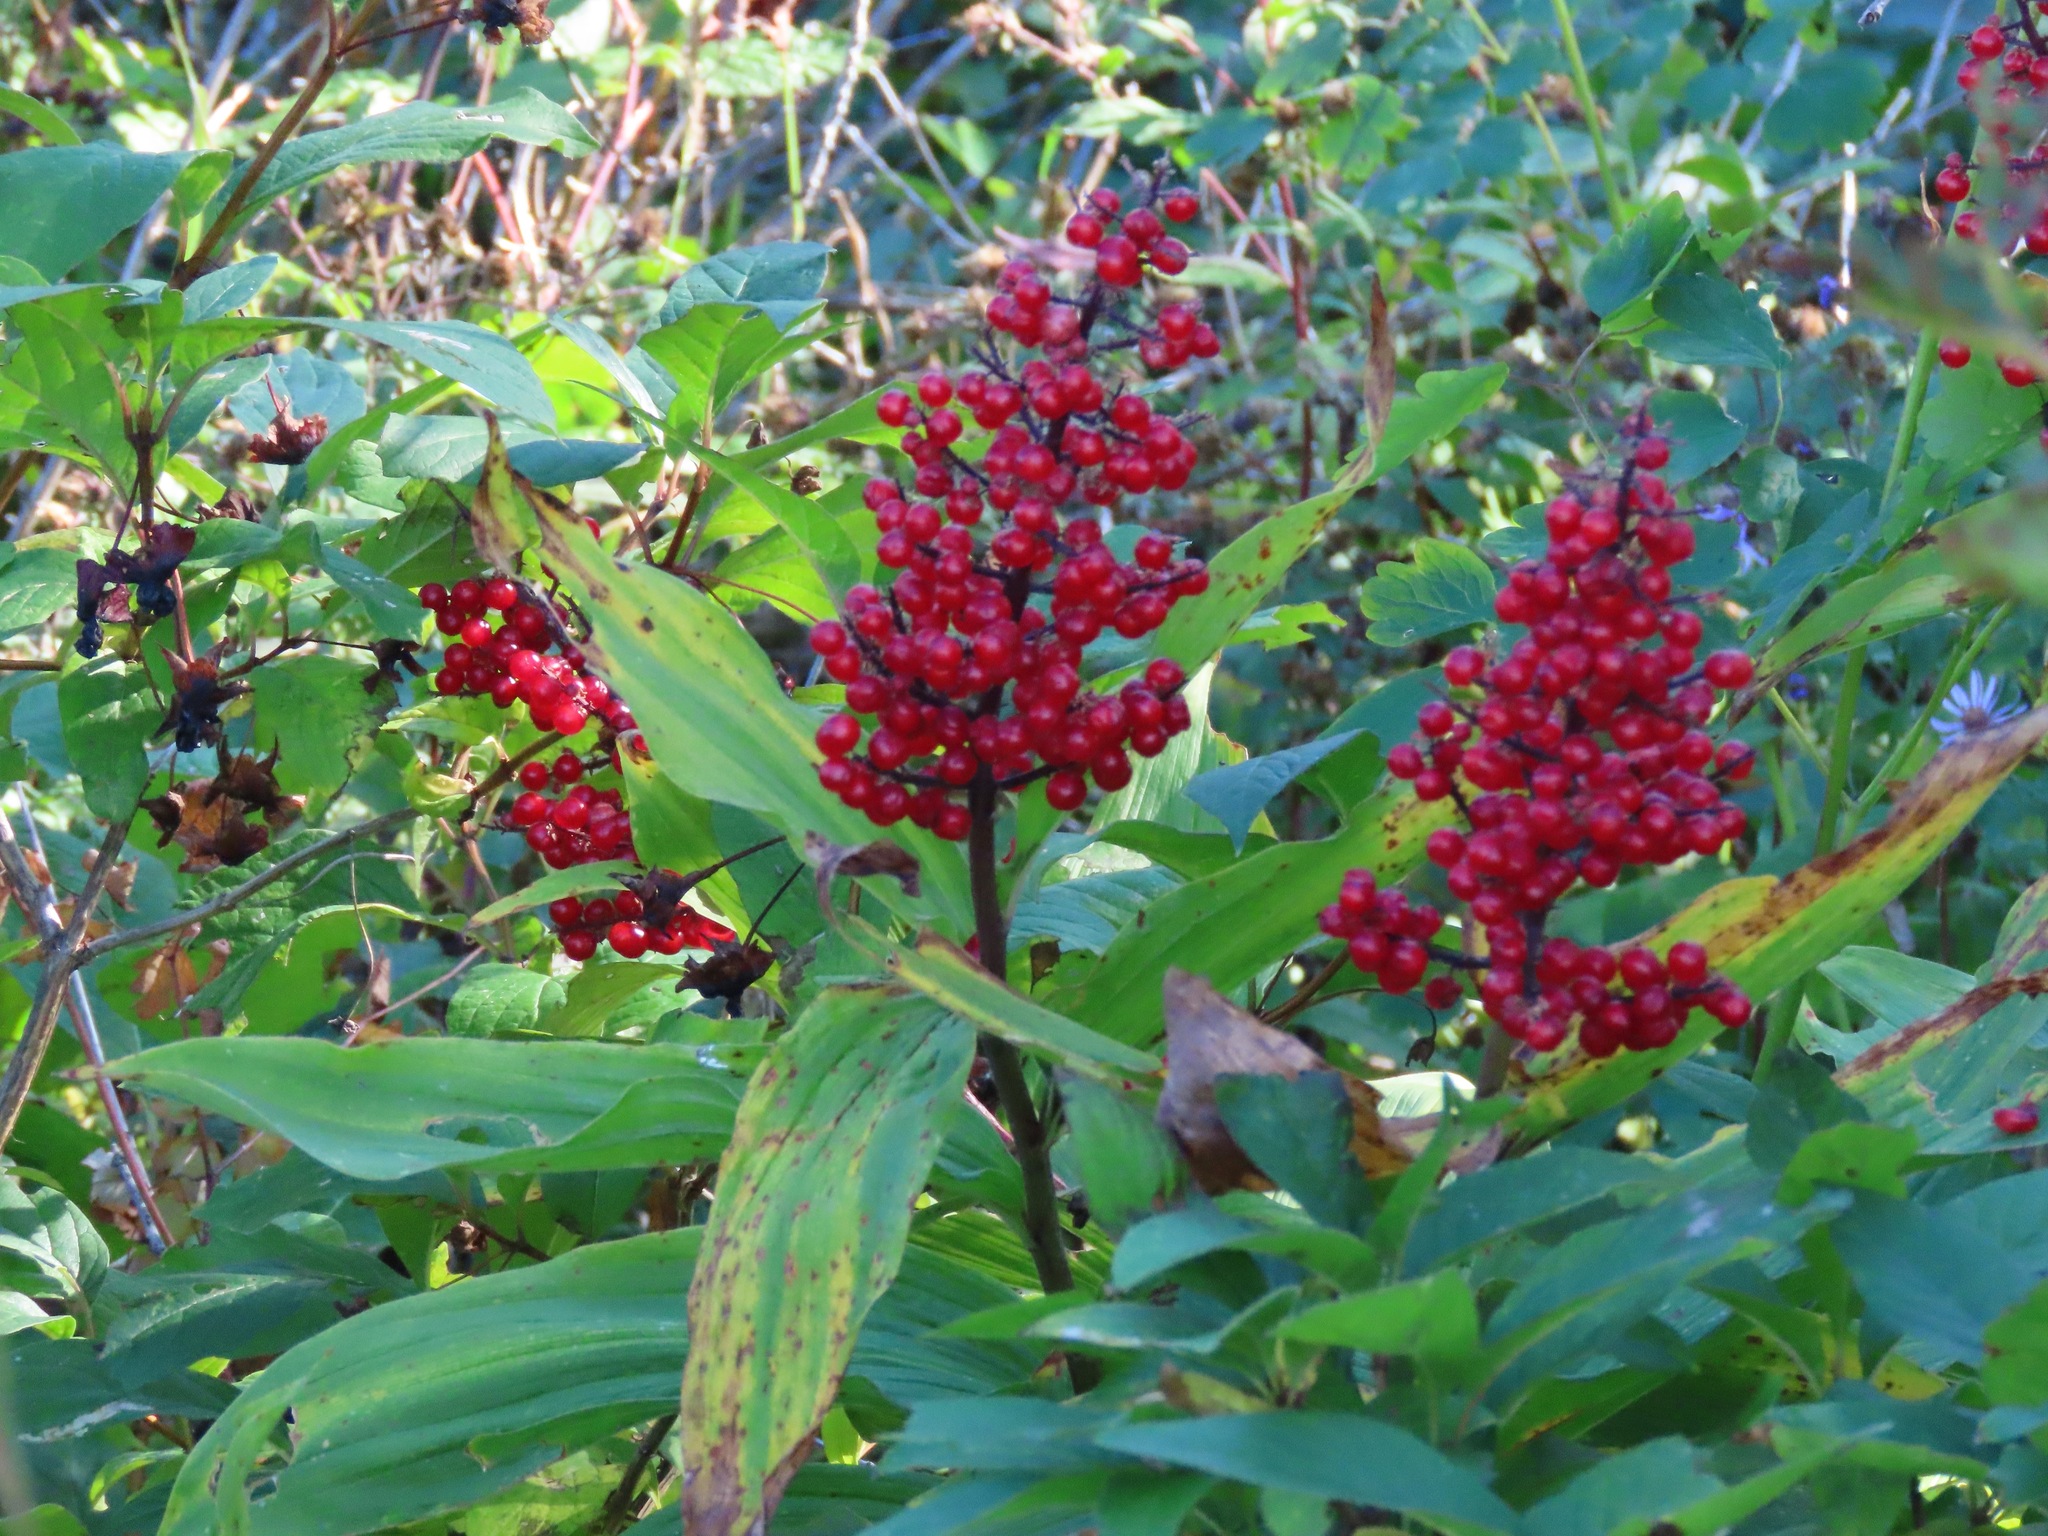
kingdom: Plantae
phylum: Tracheophyta
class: Liliopsida
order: Asparagales
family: Asparagaceae
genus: Maianthemum
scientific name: Maianthemum racemosum
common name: False spikenard
